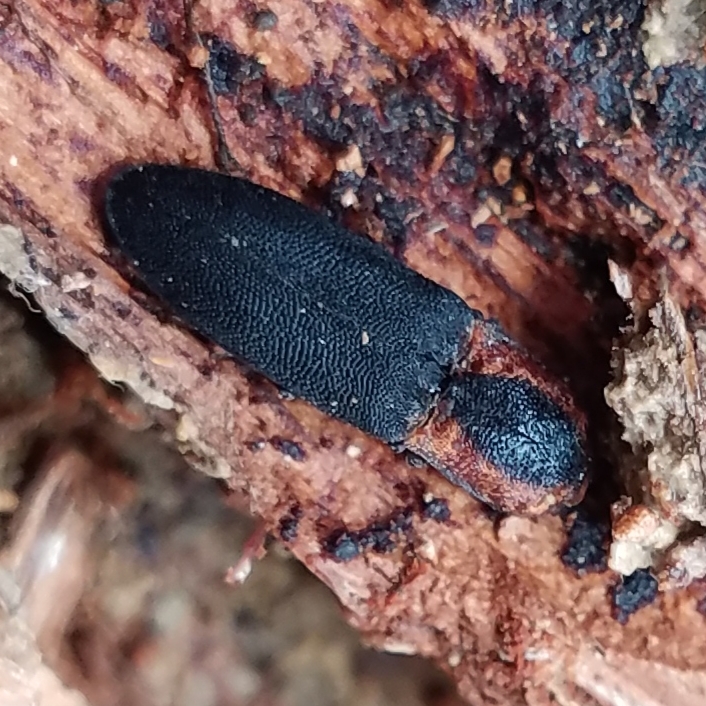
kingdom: Animalia
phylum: Arthropoda
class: Insecta
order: Coleoptera
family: Elateridae
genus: Lacon
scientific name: Lacon discoideus
